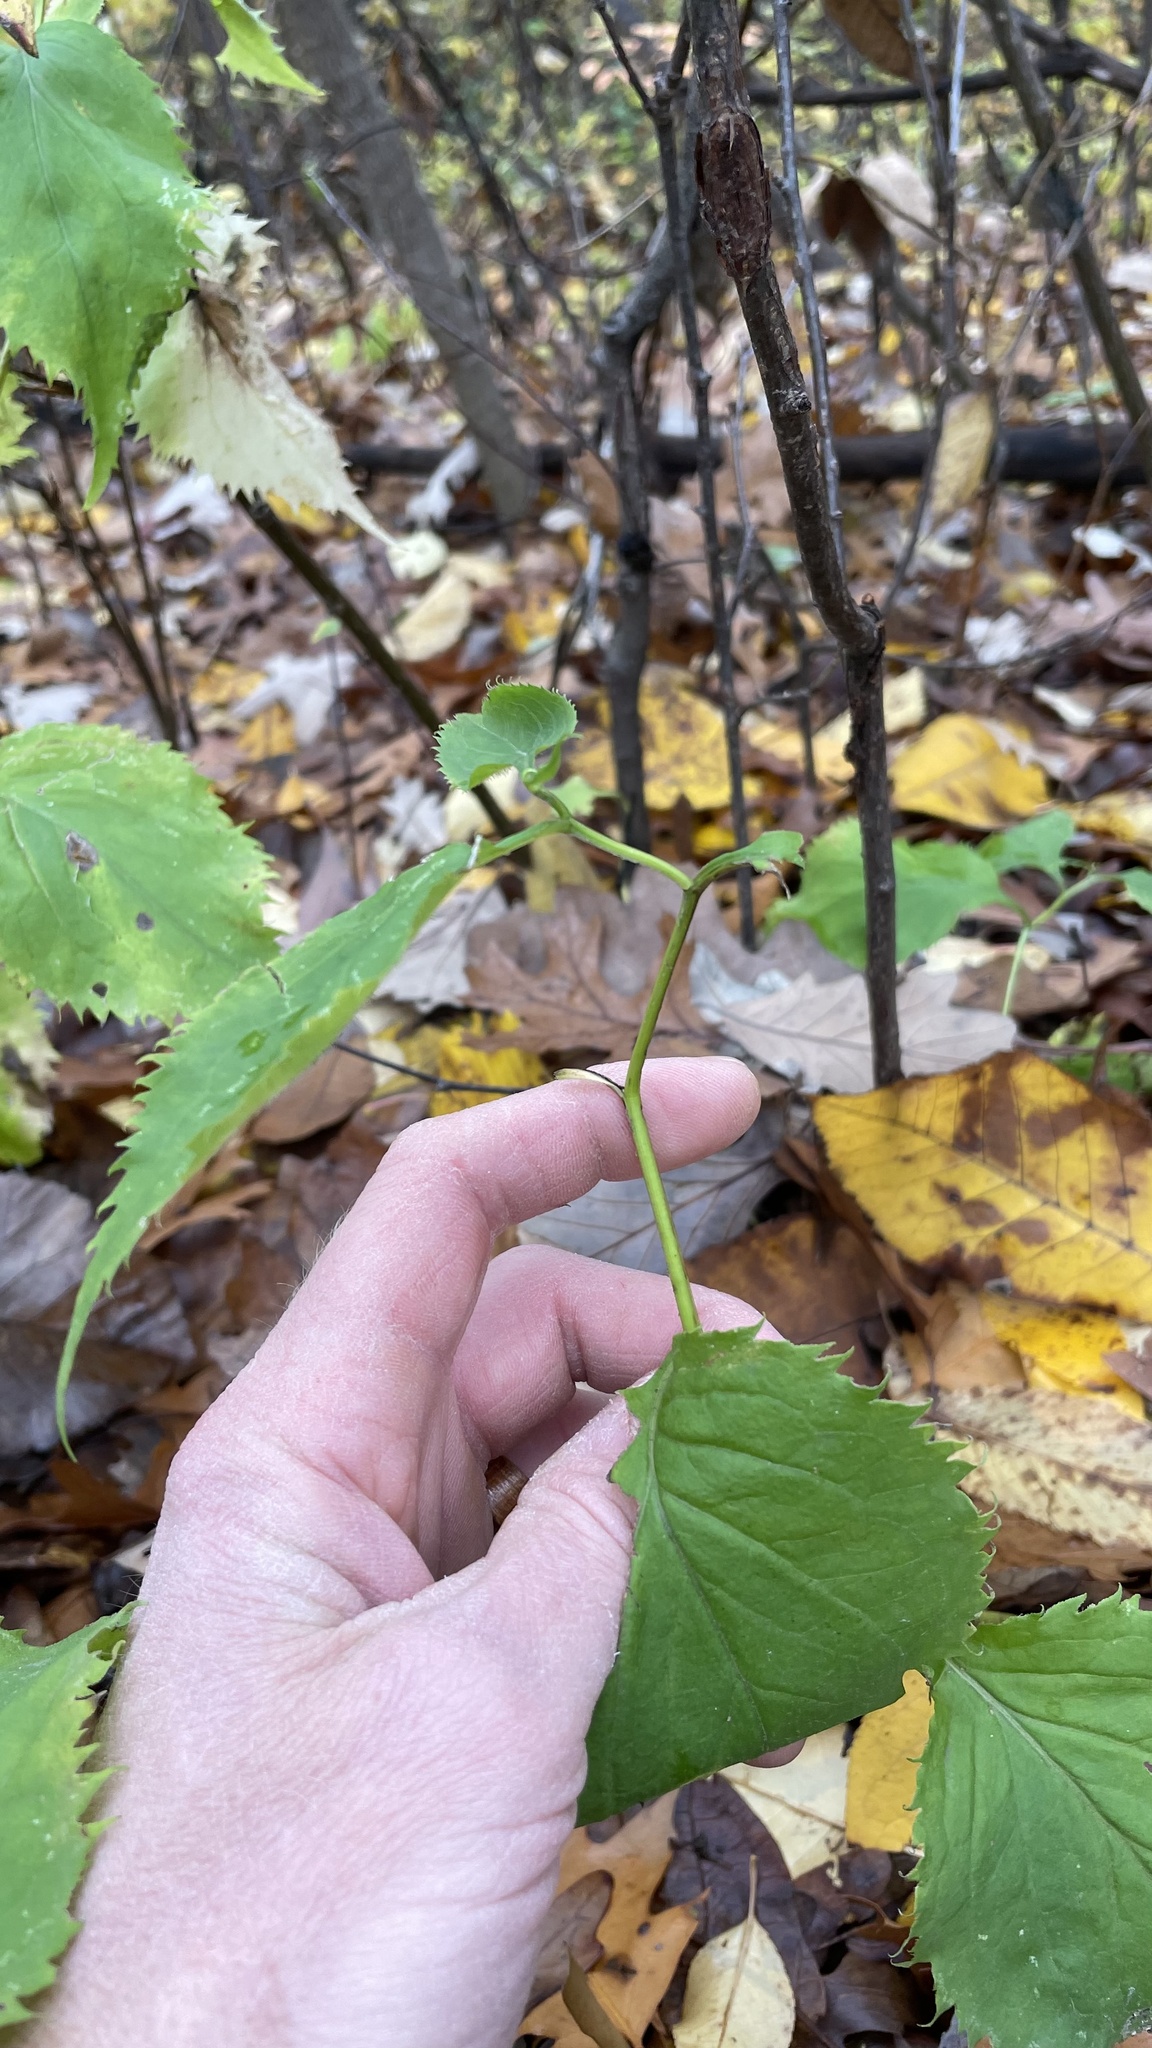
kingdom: Plantae
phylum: Tracheophyta
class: Magnoliopsida
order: Asterales
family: Asteraceae
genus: Solidago
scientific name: Solidago flexicaulis
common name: Zig-zag goldenrod
